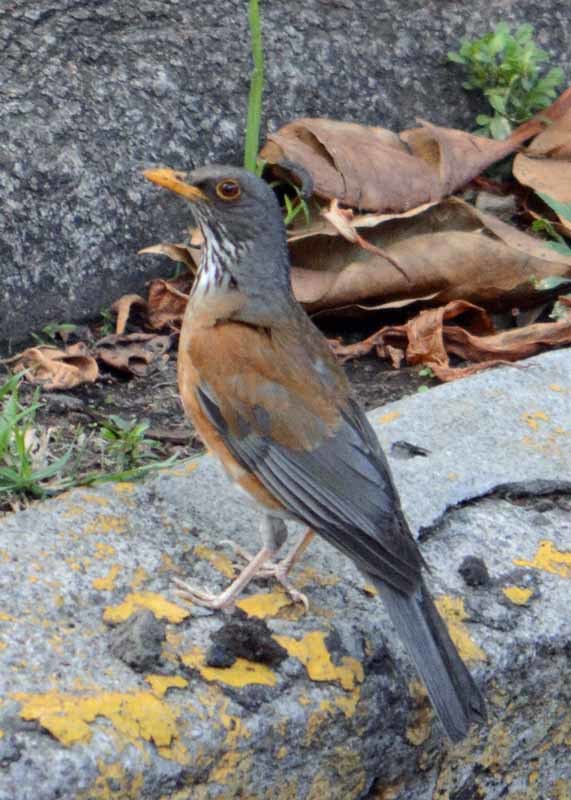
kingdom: Animalia
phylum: Chordata
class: Aves
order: Passeriformes
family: Turdidae
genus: Turdus
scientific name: Turdus rufopalliatus
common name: Rufous-backed robin
